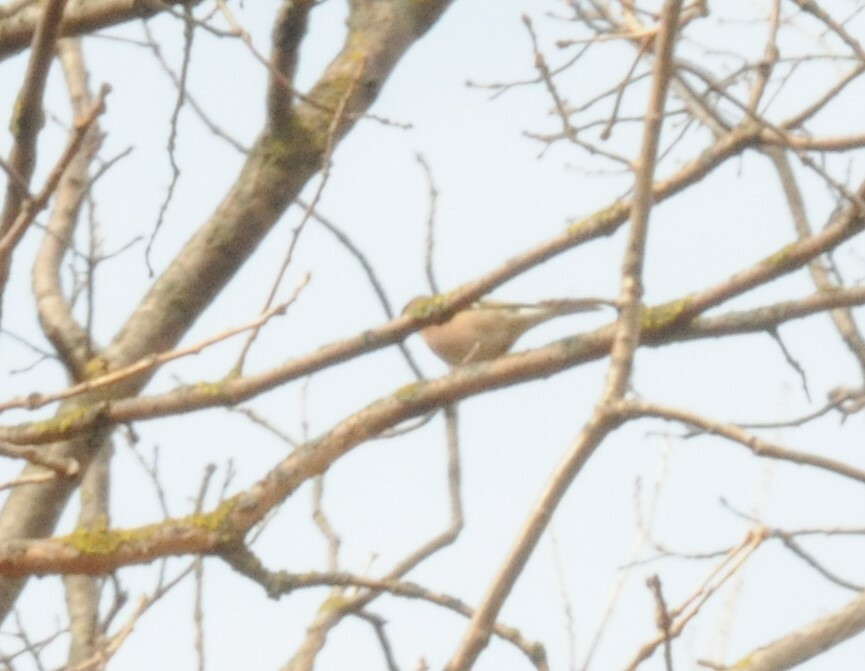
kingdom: Animalia
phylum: Chordata
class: Aves
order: Passeriformes
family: Fringillidae
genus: Fringilla
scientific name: Fringilla coelebs
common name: Common chaffinch
